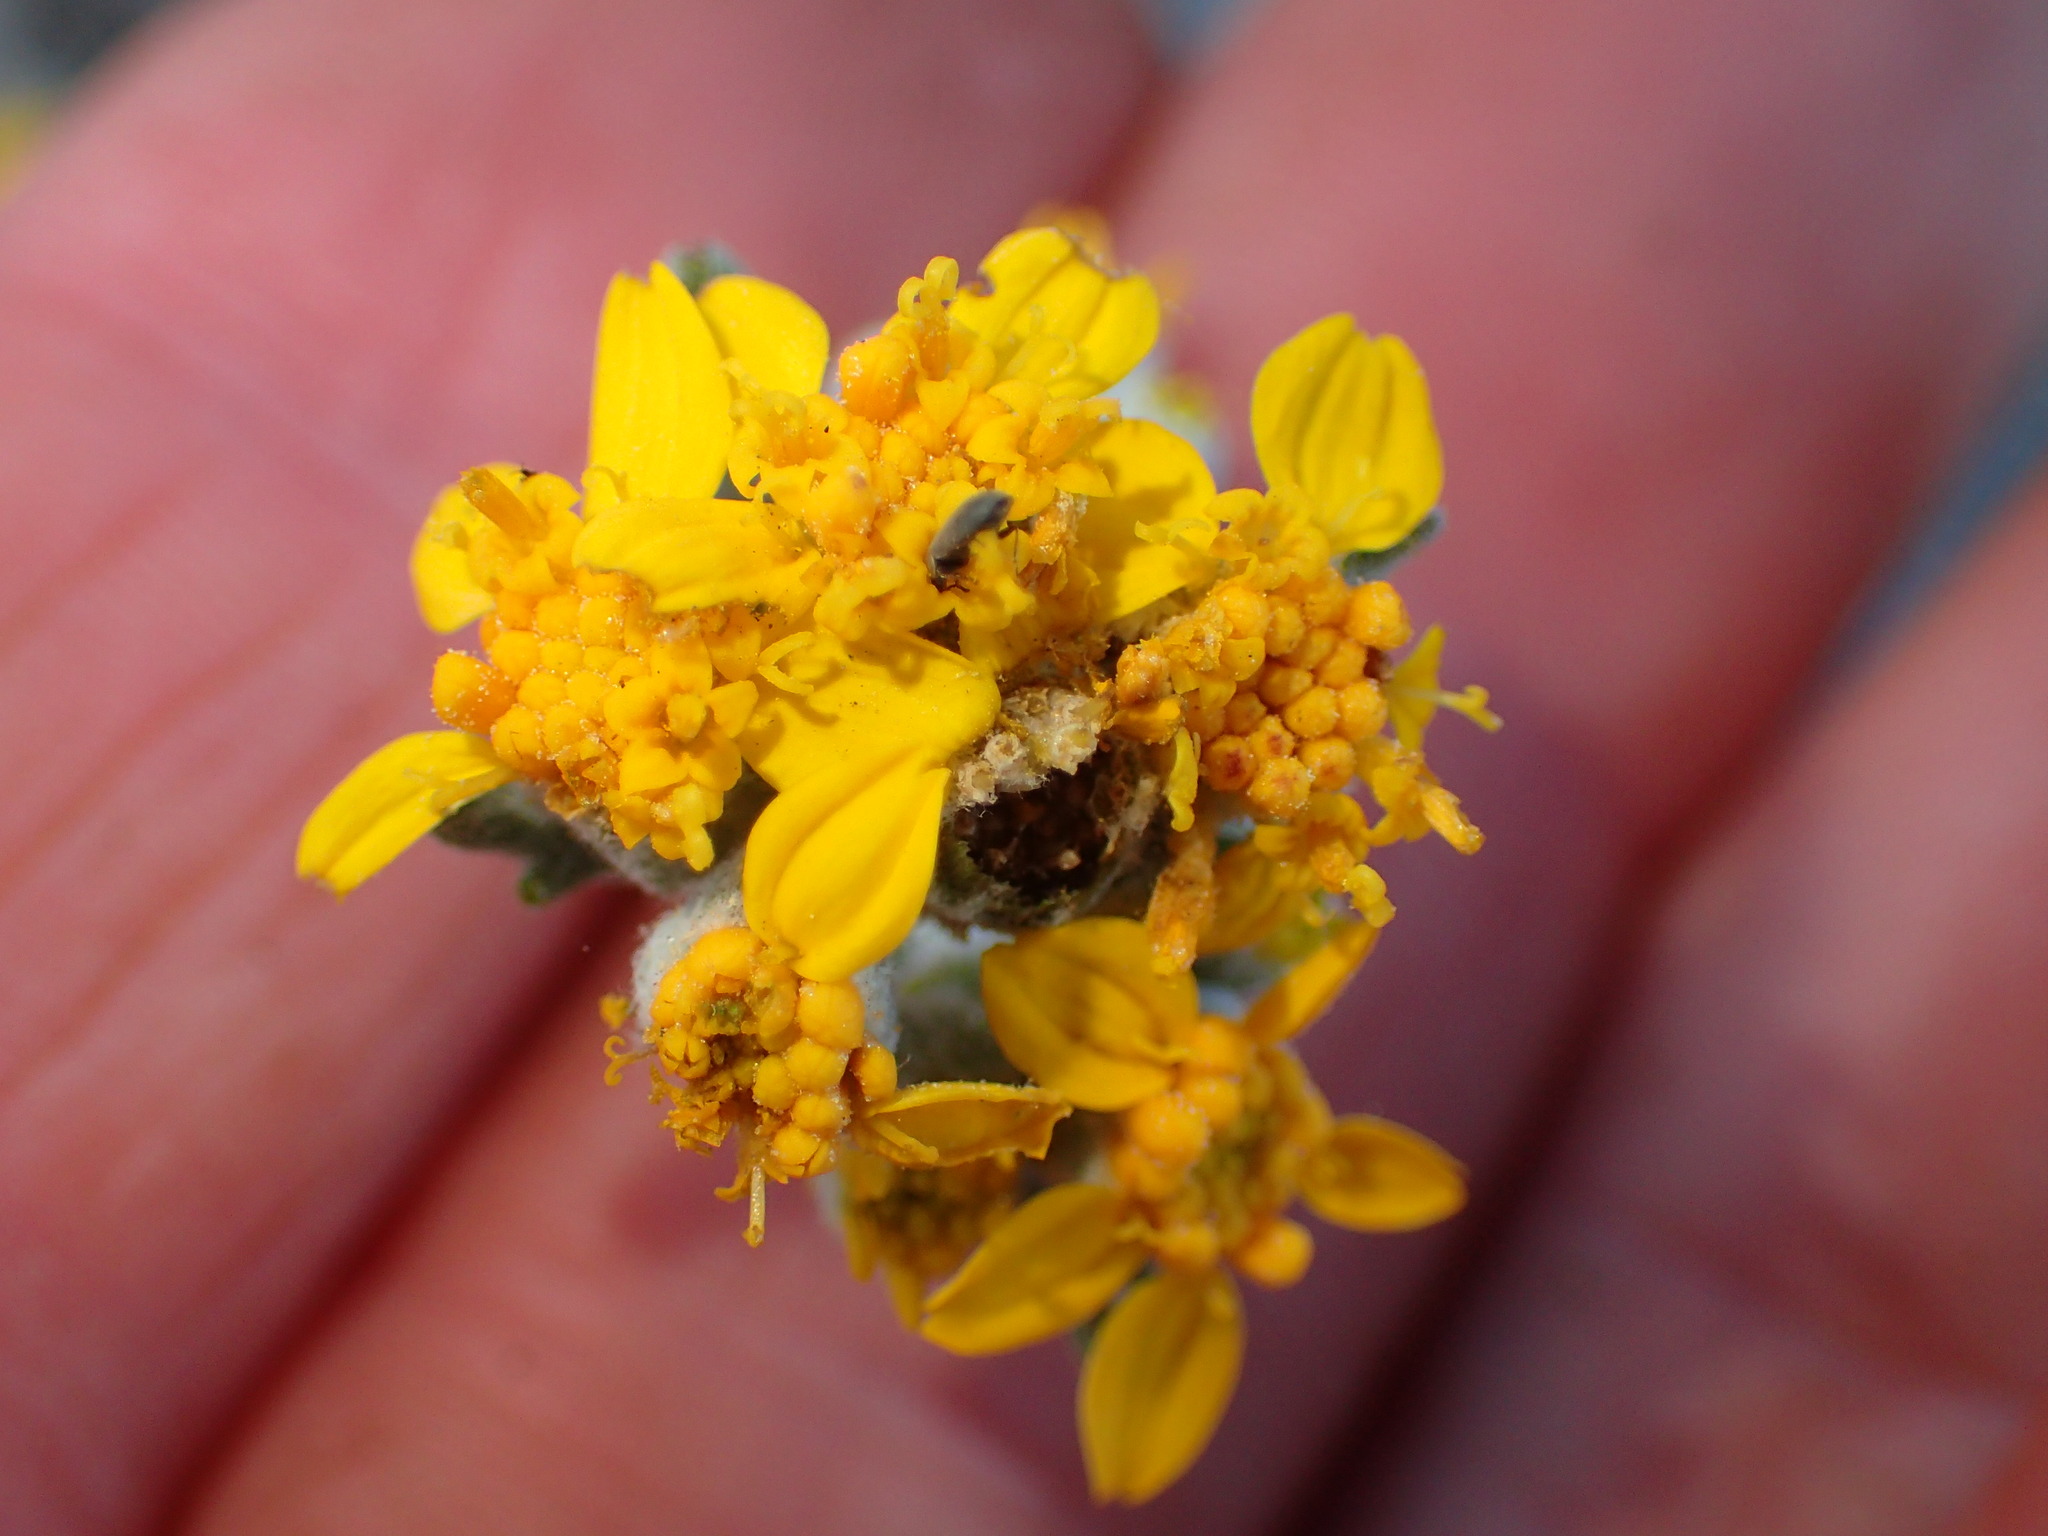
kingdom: Plantae
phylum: Tracheophyta
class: Magnoliopsida
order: Asterales
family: Asteraceae
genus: Eriophyllum
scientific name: Eriophyllum confertiflorum
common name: Golden-yarrow
